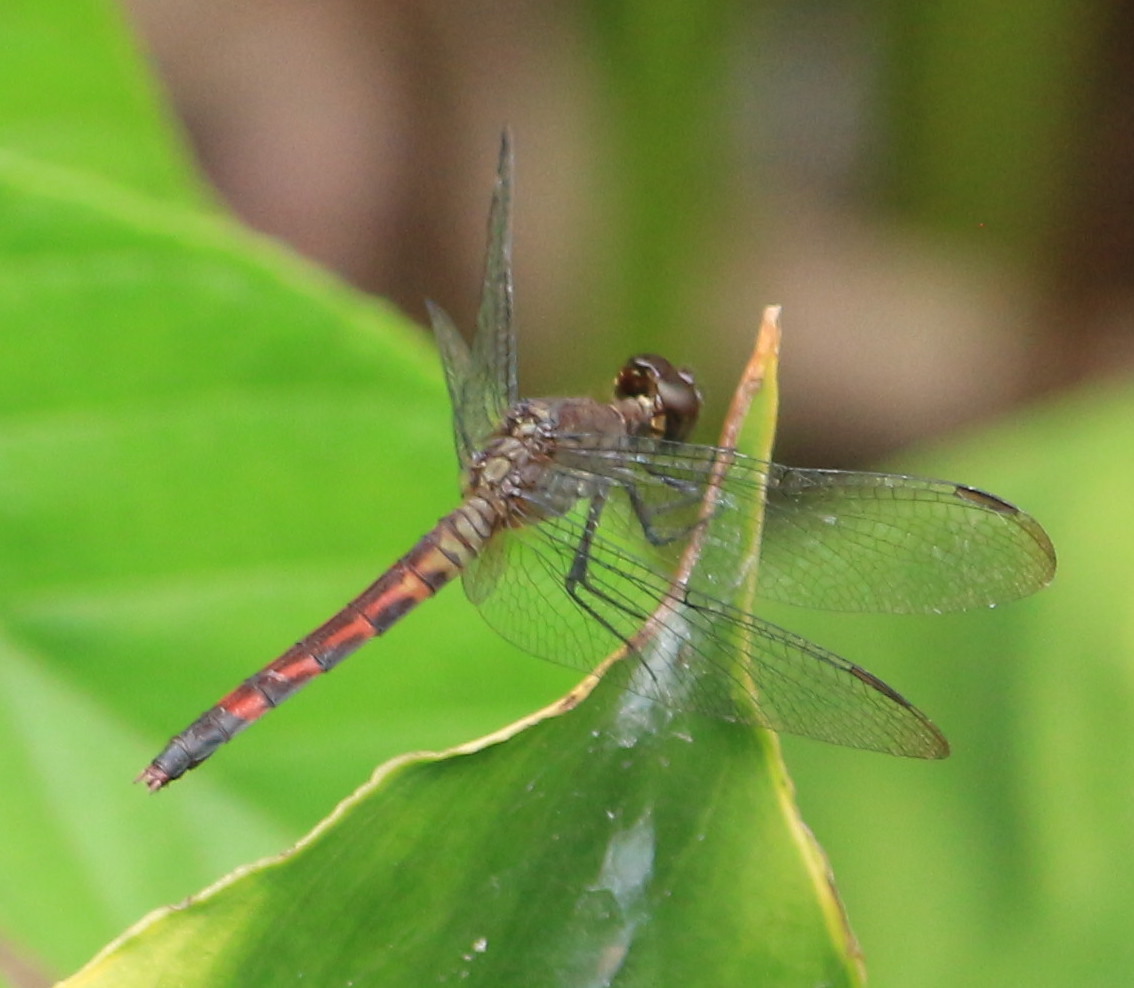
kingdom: Animalia
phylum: Arthropoda
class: Insecta
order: Odonata
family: Libellulidae
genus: Erythrodiplax
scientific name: Erythrodiplax fusca
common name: Red-faced dragonlet
